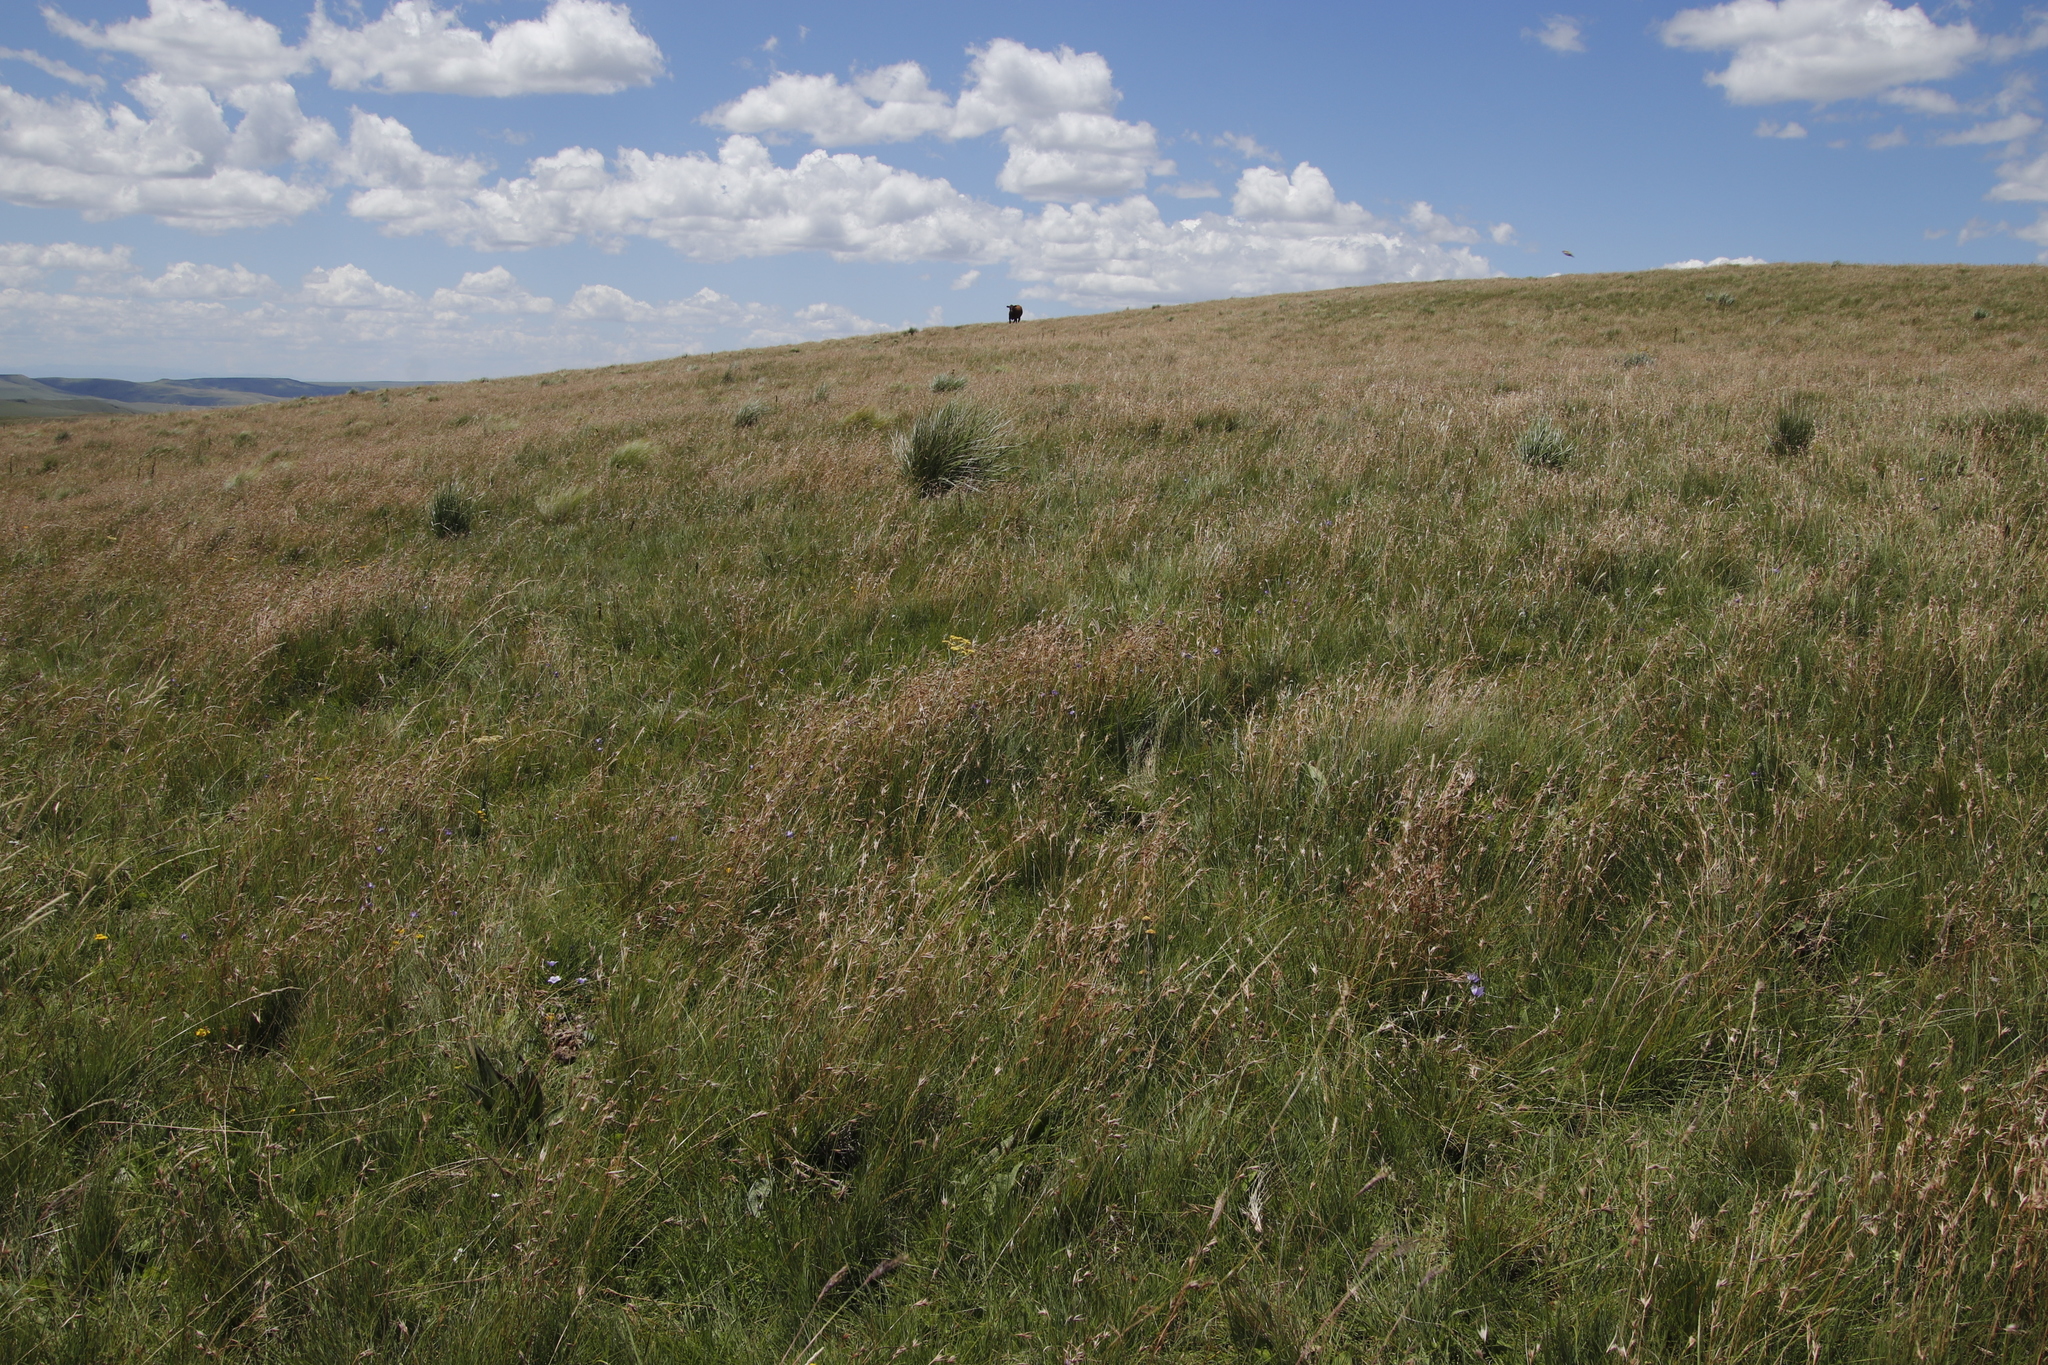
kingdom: Plantae
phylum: Tracheophyta
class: Liliopsida
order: Poales
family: Poaceae
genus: Themeda
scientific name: Themeda triandra
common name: Kangaroo grass
